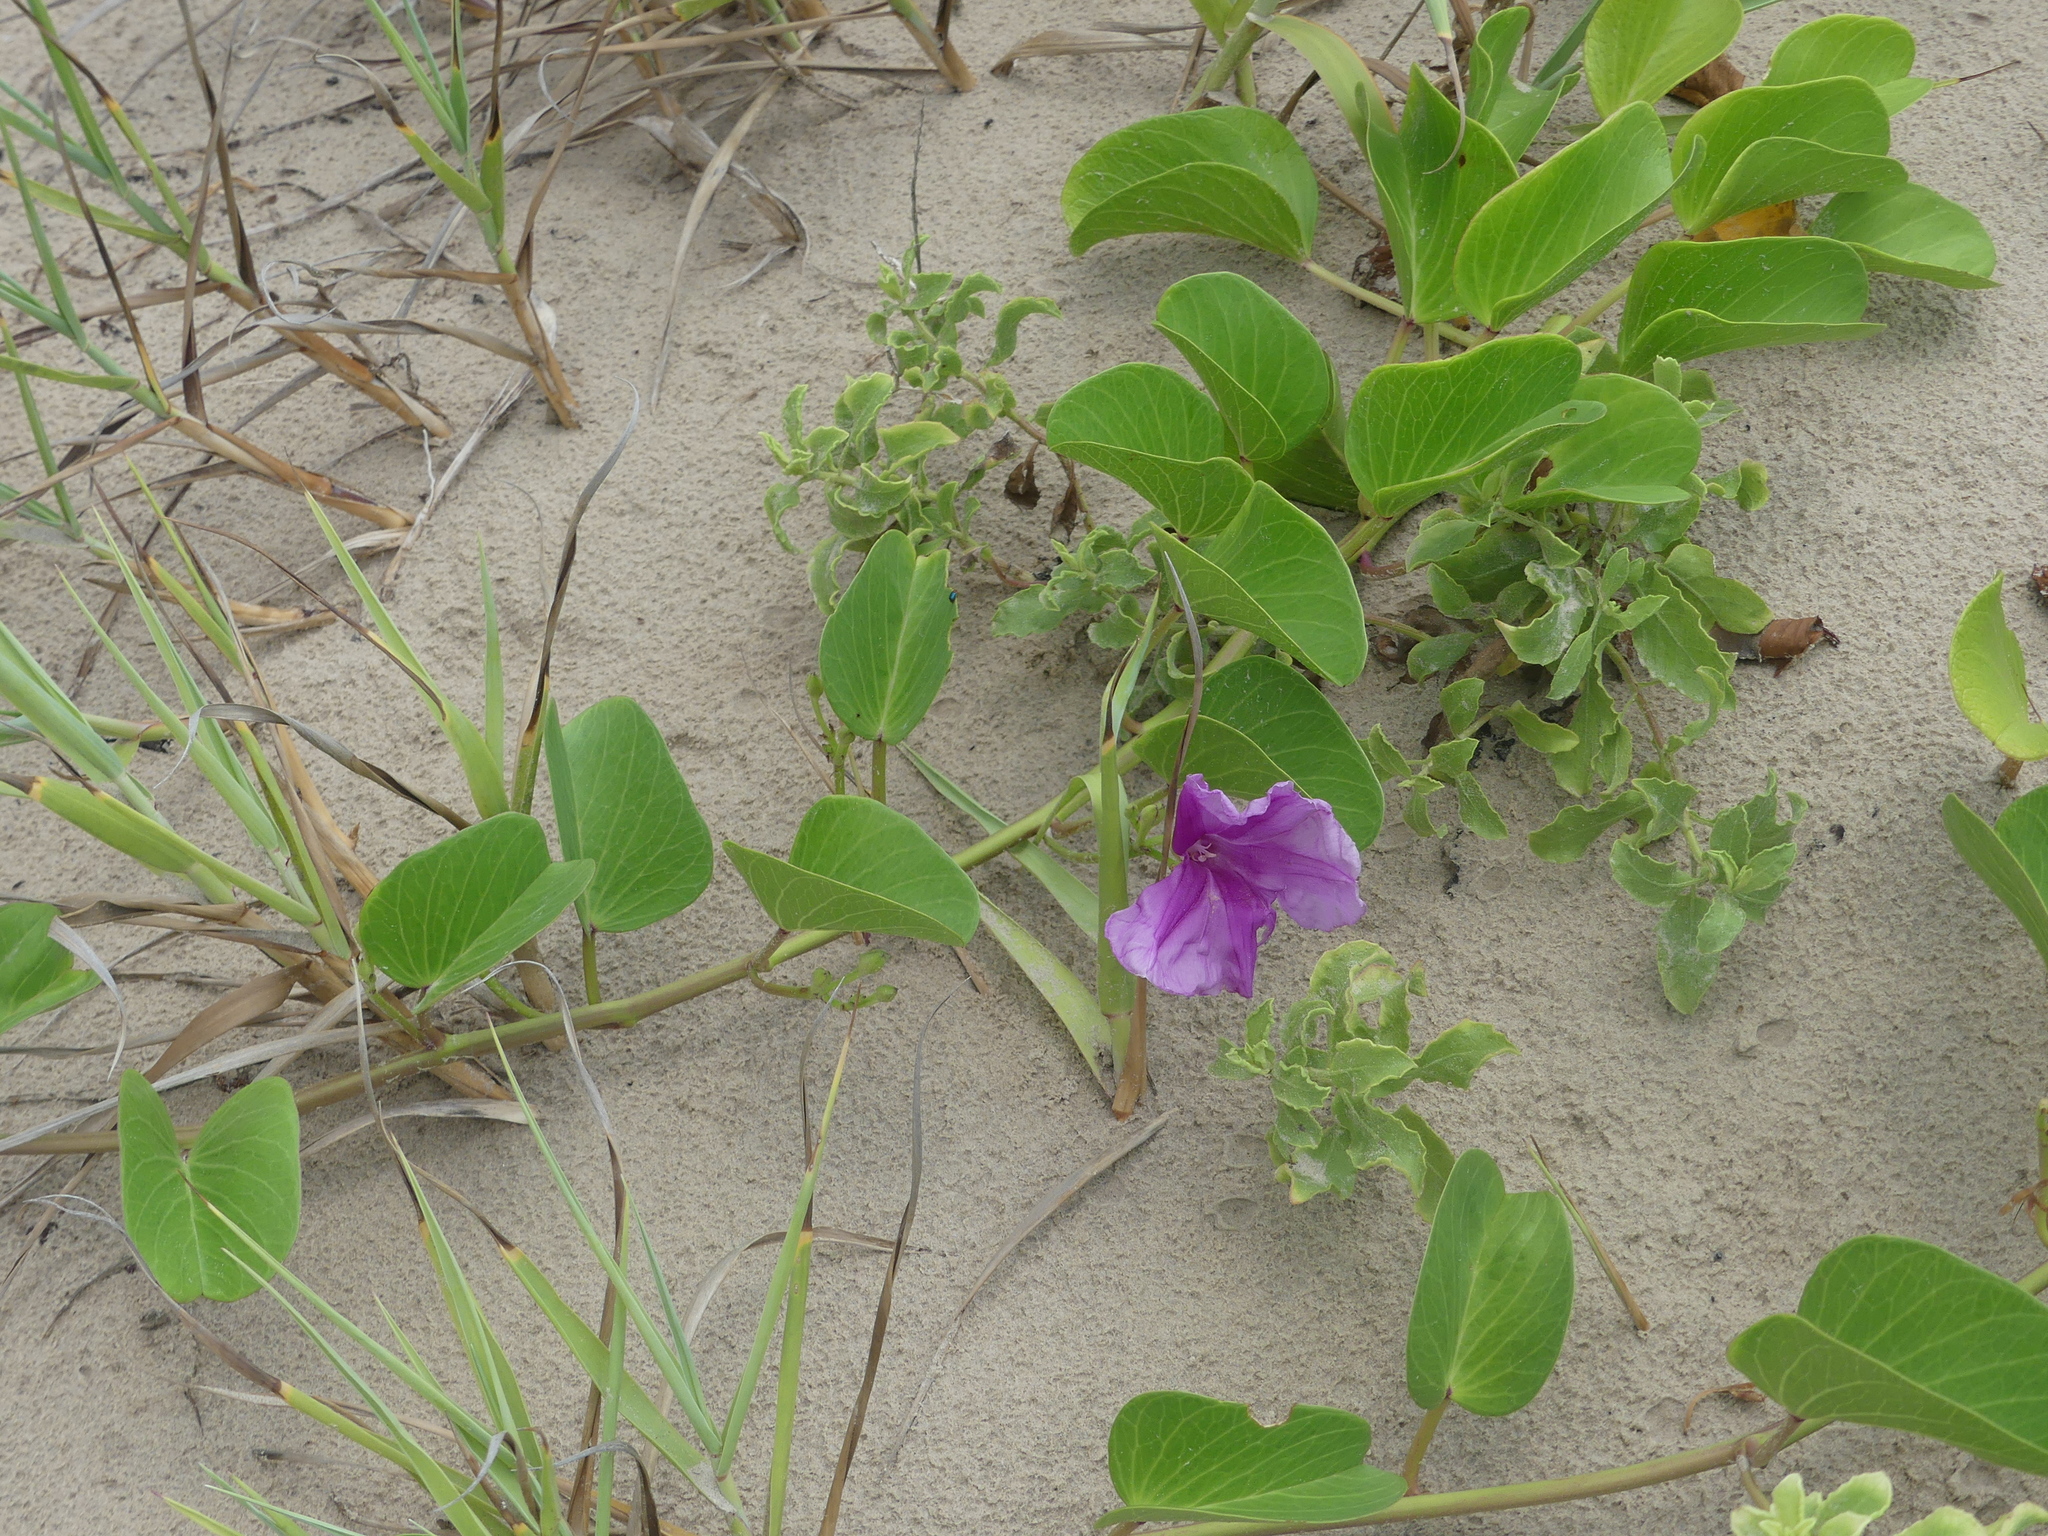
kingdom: Plantae
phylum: Tracheophyta
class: Magnoliopsida
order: Solanales
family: Convolvulaceae
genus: Ipomoea
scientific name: Ipomoea pes-caprae
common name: Beach morning glory
